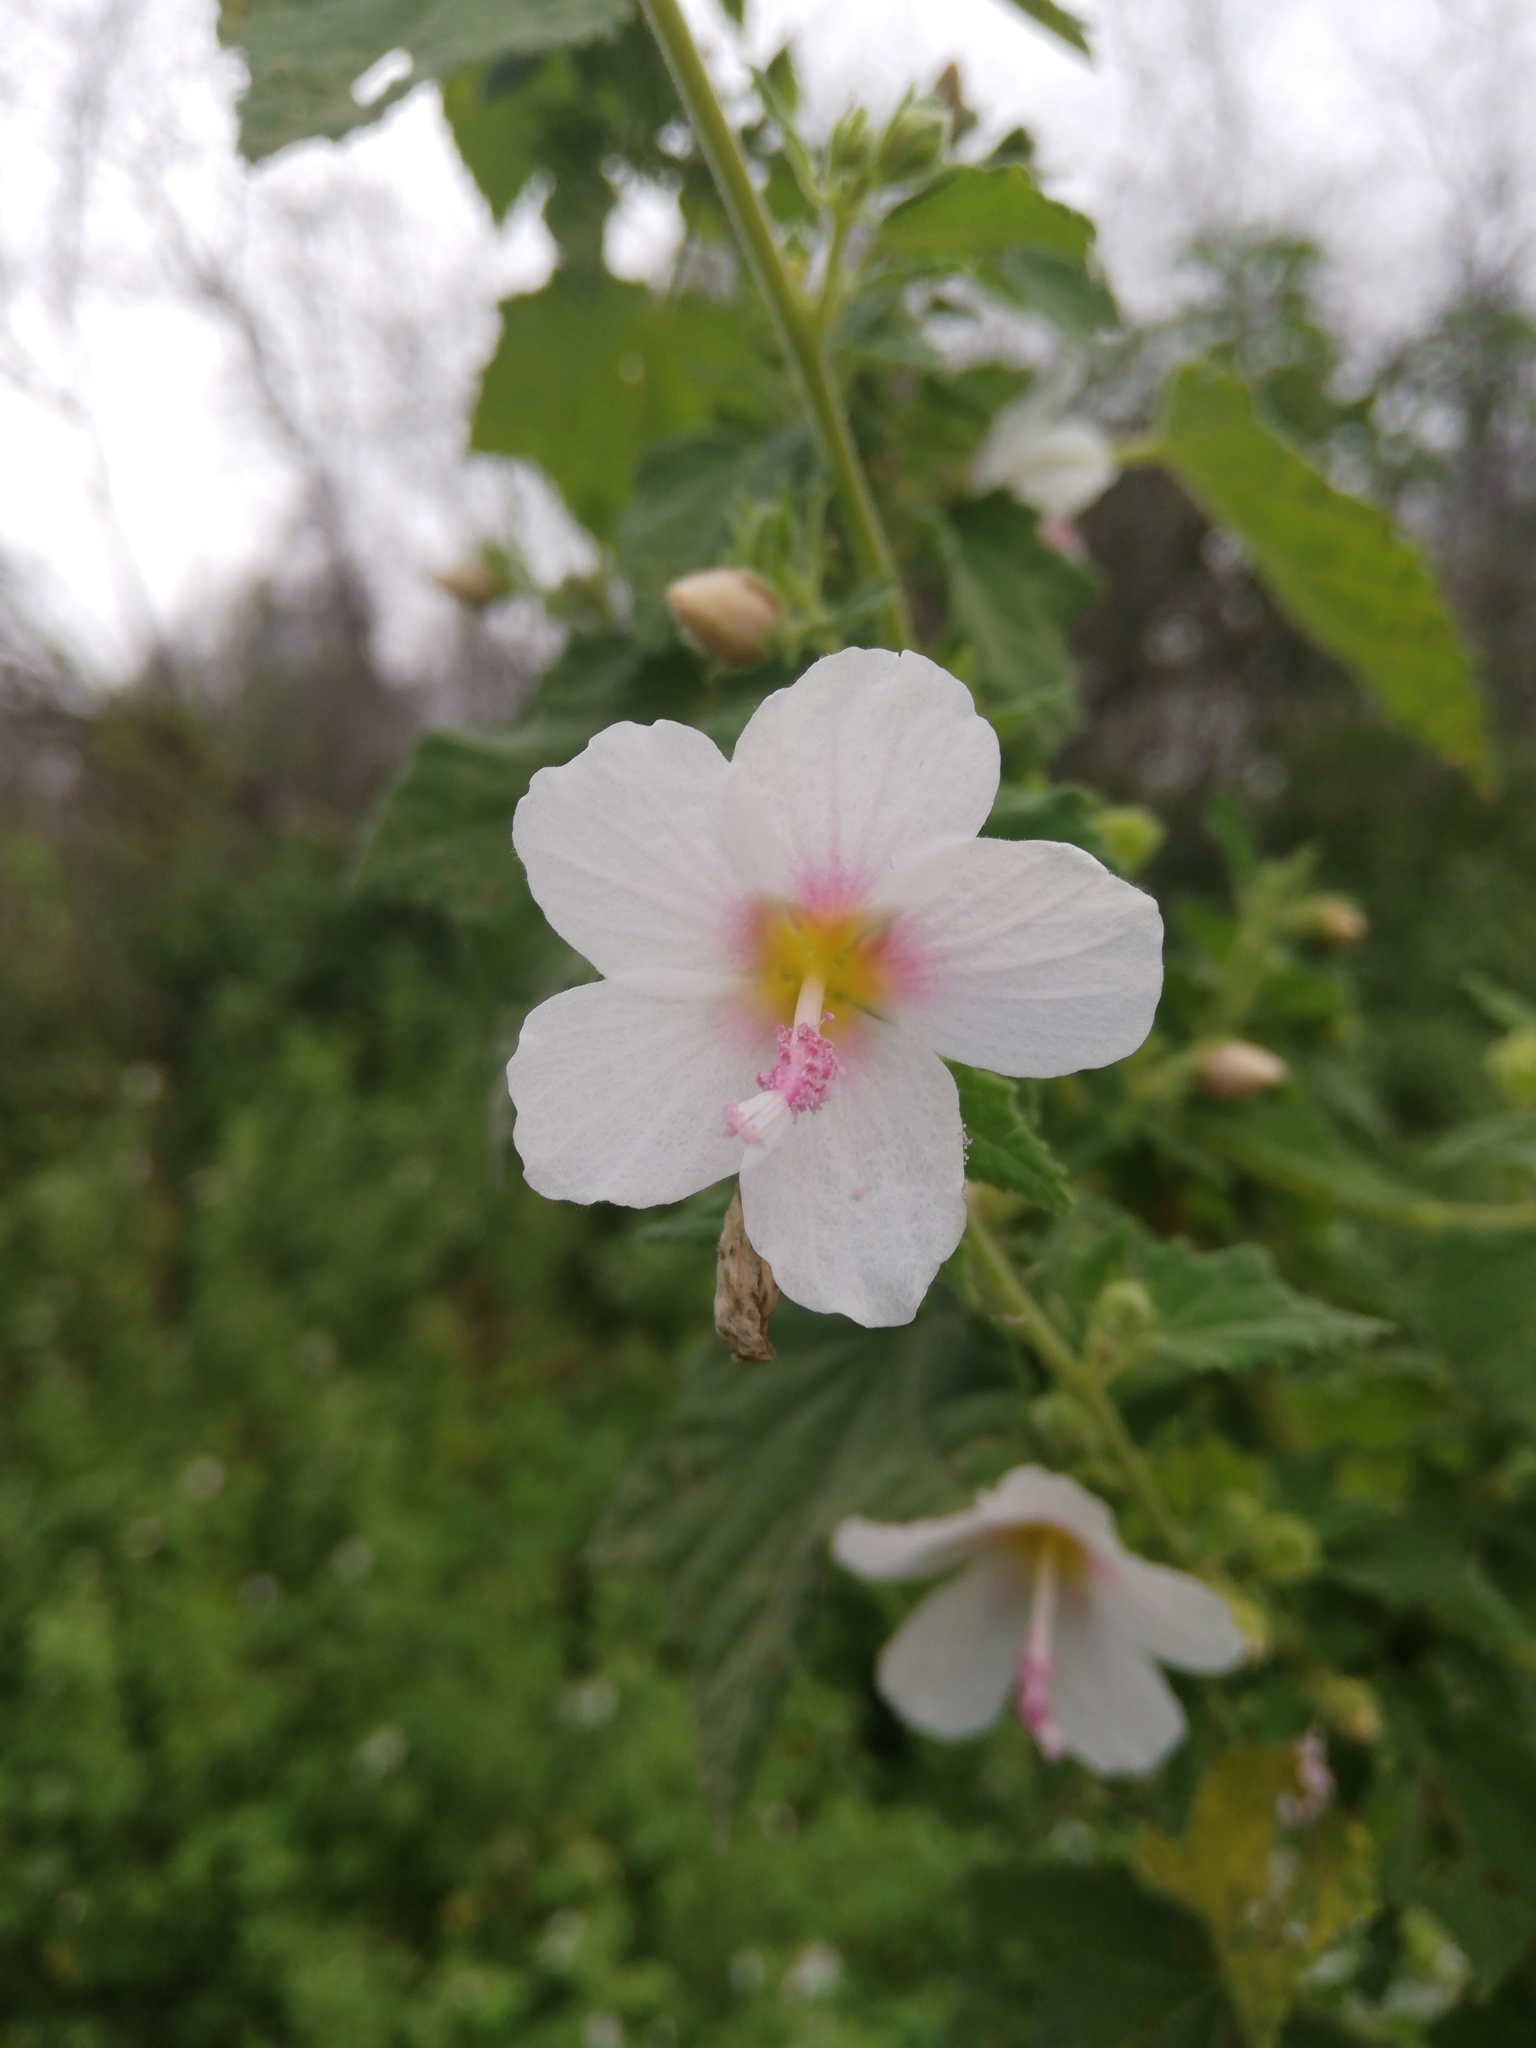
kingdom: Plantae
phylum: Tracheophyta
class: Magnoliopsida
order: Malvales
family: Malvaceae
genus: Pavonia
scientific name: Pavonia columella
